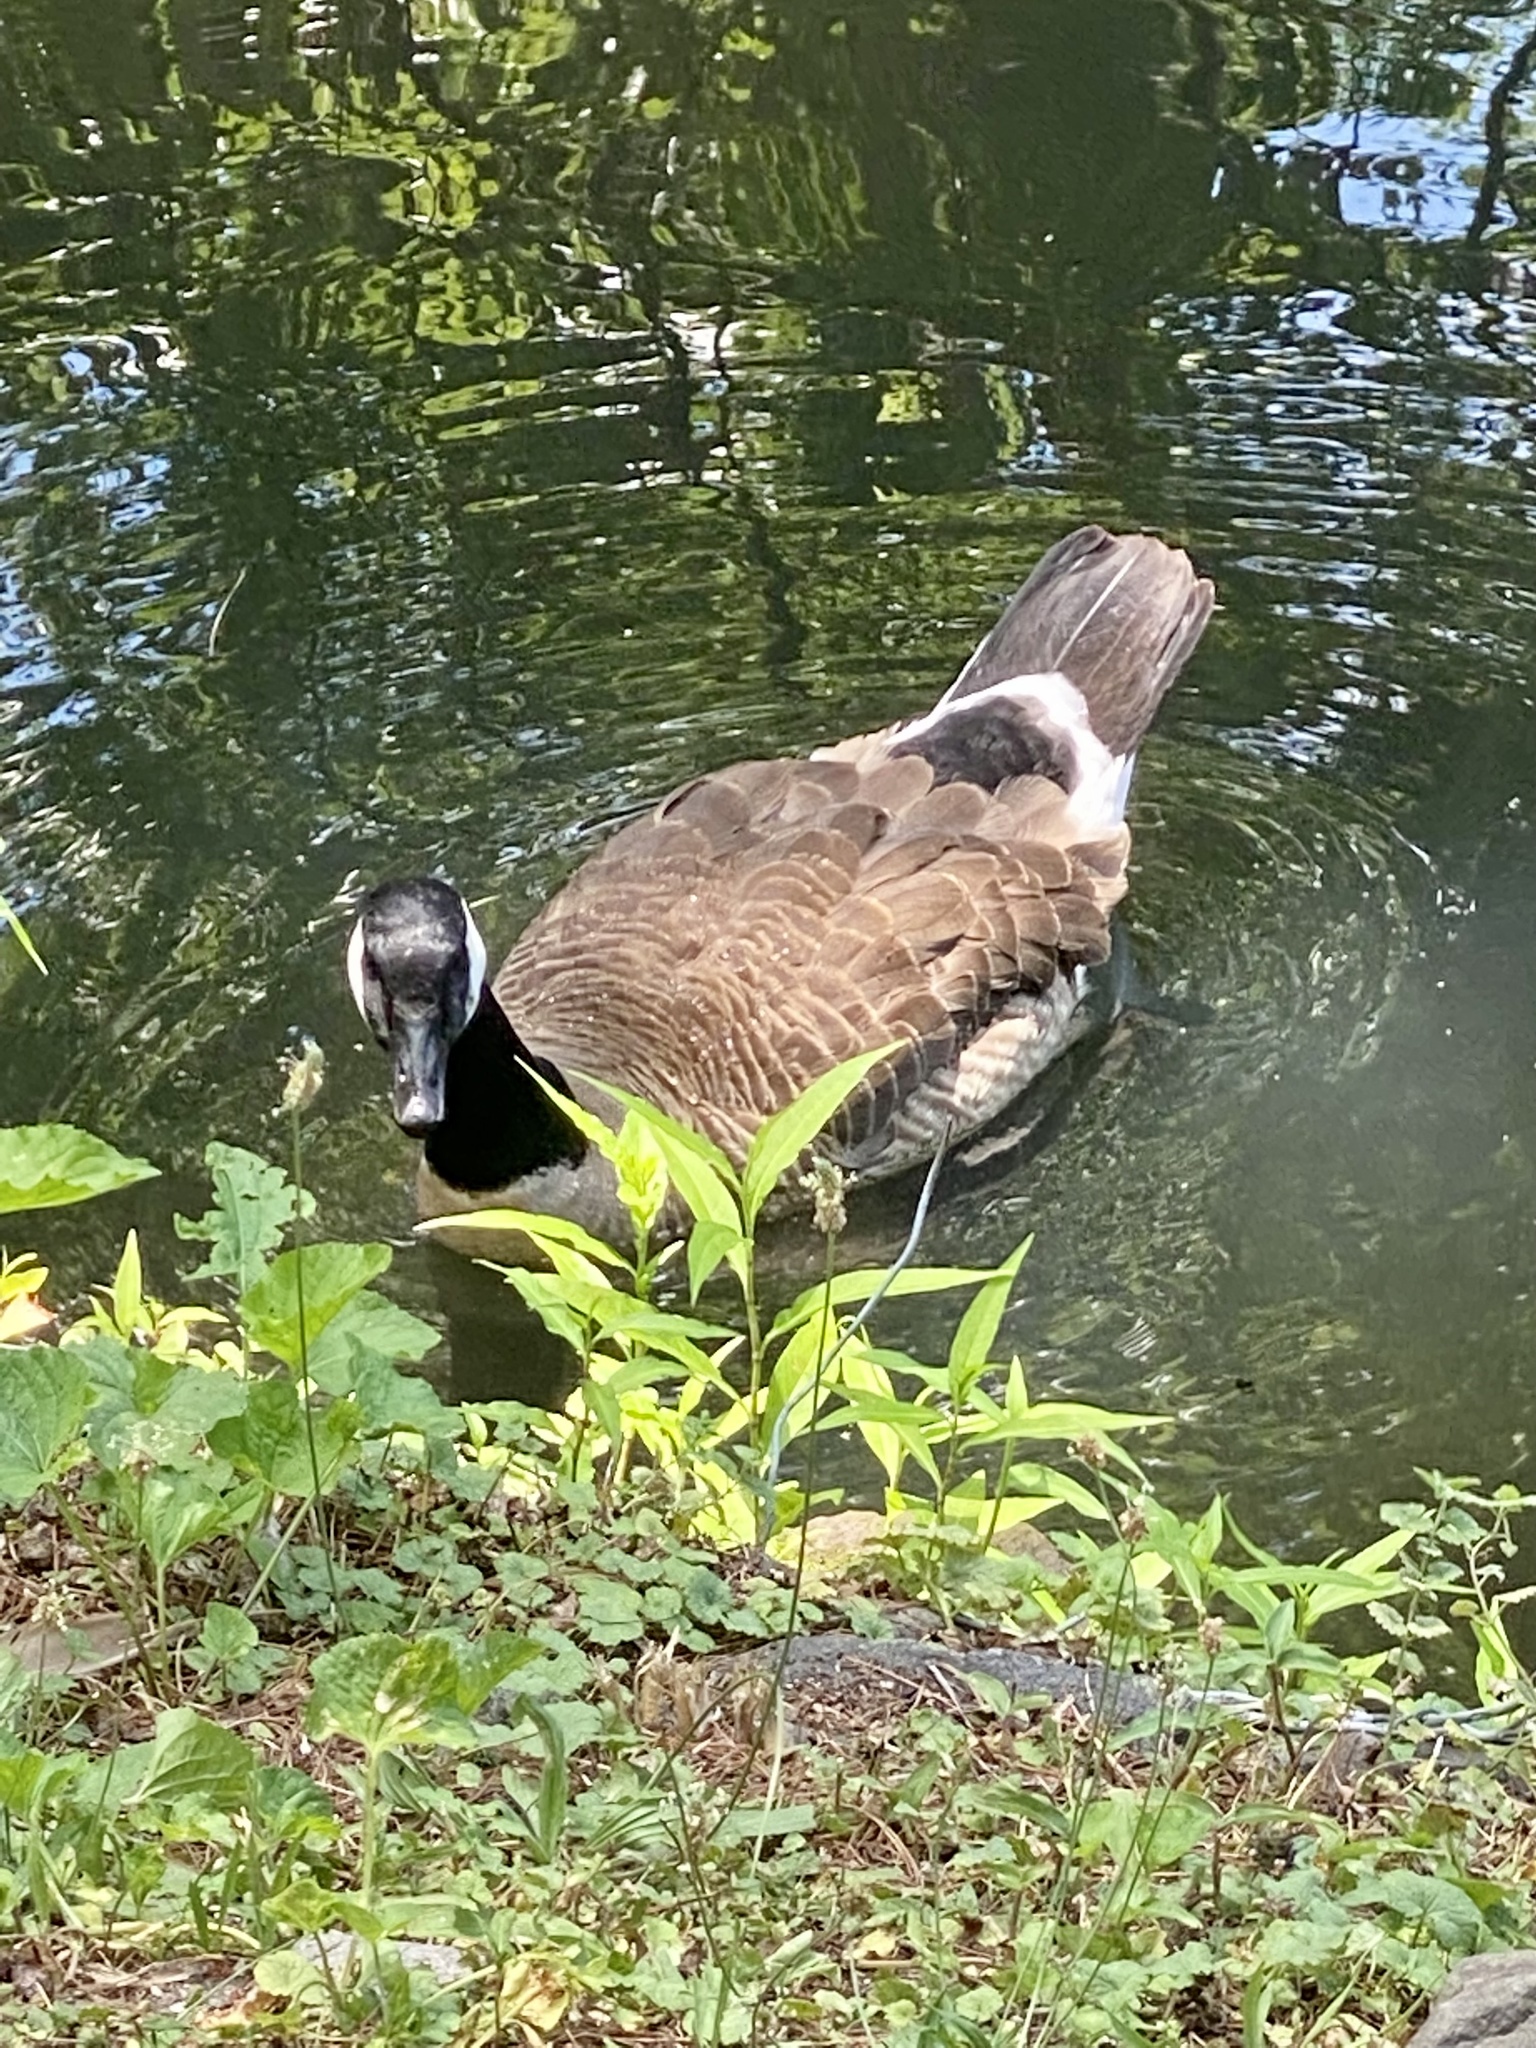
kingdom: Animalia
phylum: Chordata
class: Aves
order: Anseriformes
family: Anatidae
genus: Branta
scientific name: Branta canadensis
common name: Canada goose
